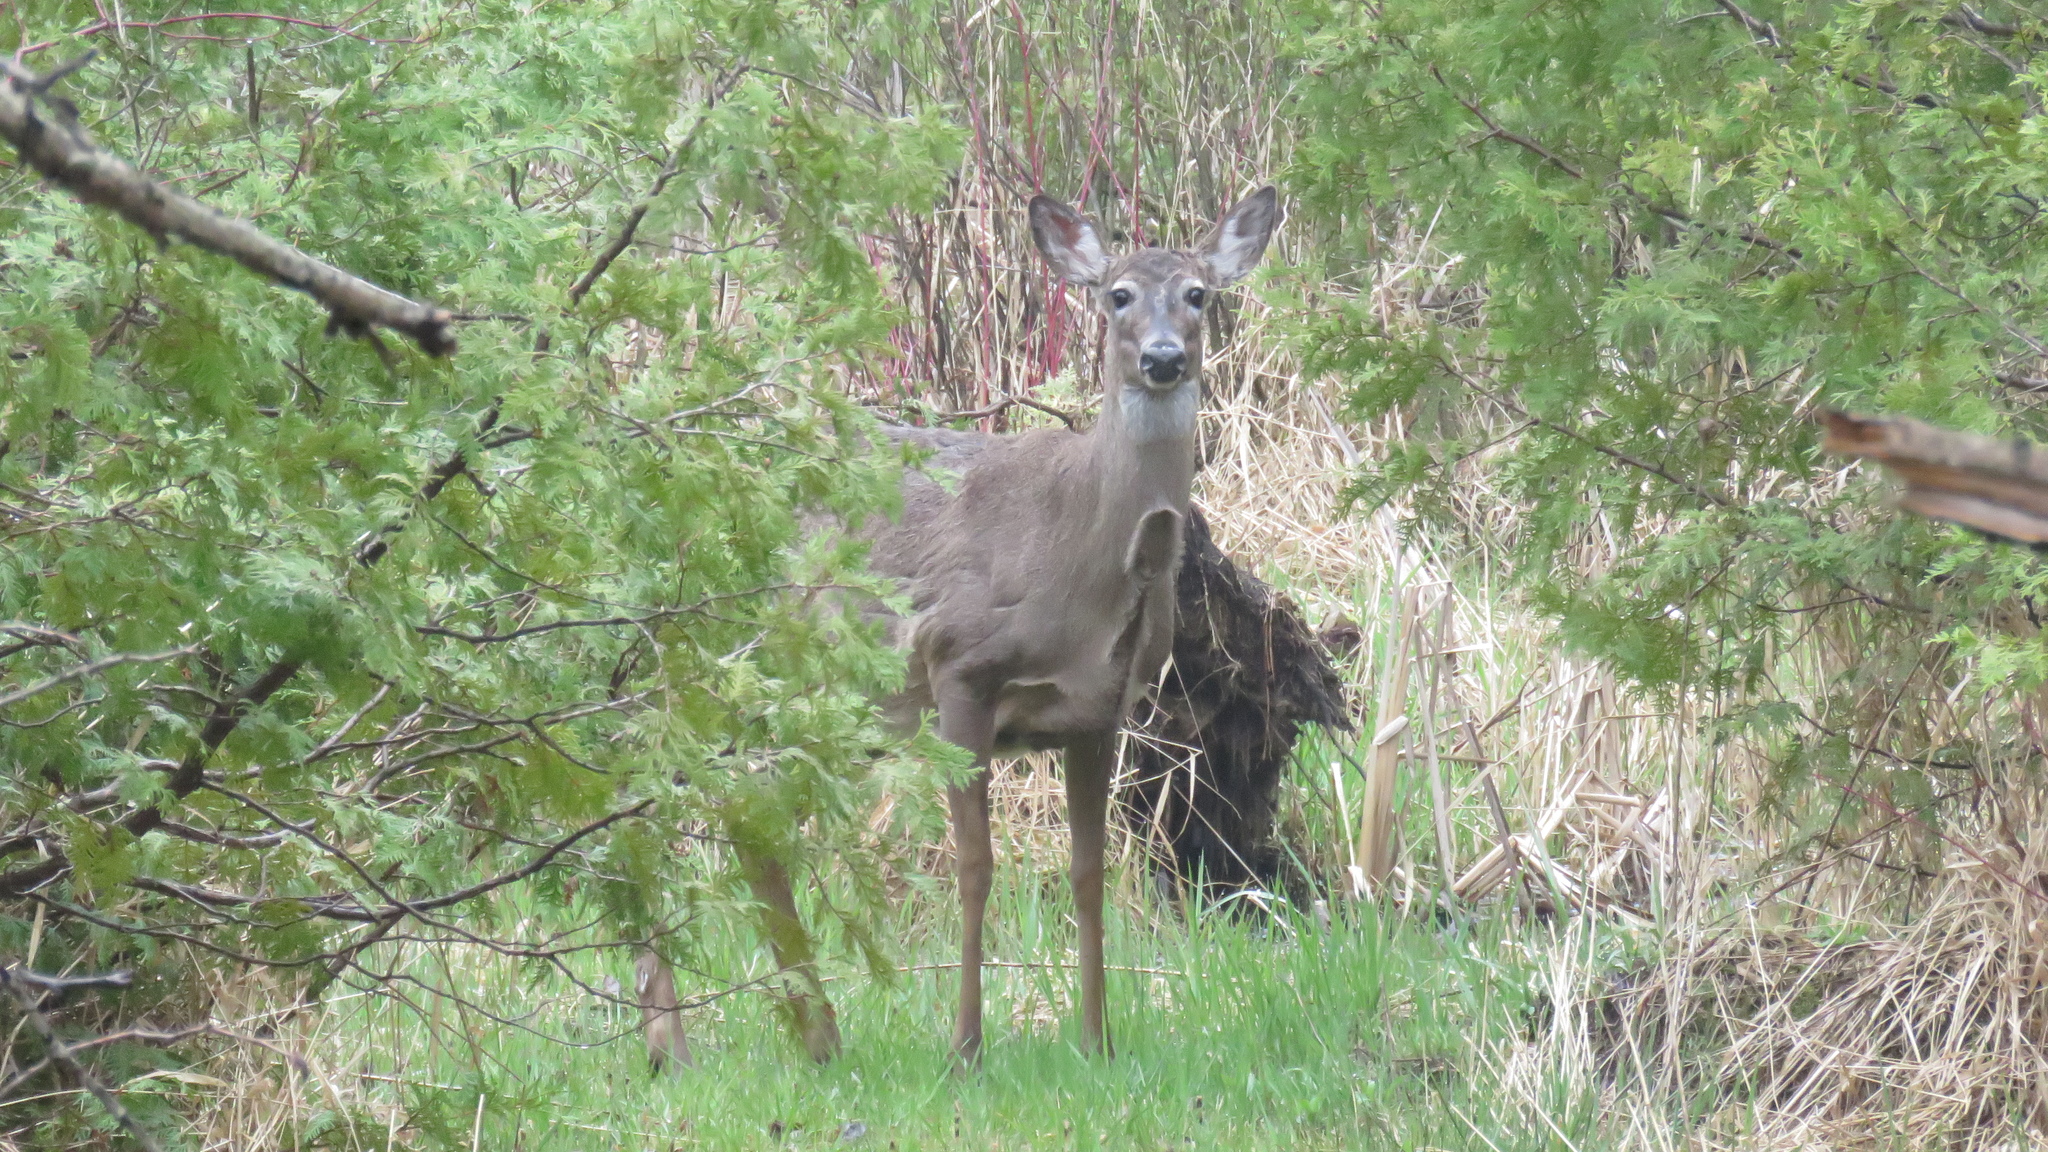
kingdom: Animalia
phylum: Chordata
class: Mammalia
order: Artiodactyla
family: Cervidae
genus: Odocoileus
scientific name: Odocoileus virginianus
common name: White-tailed deer
